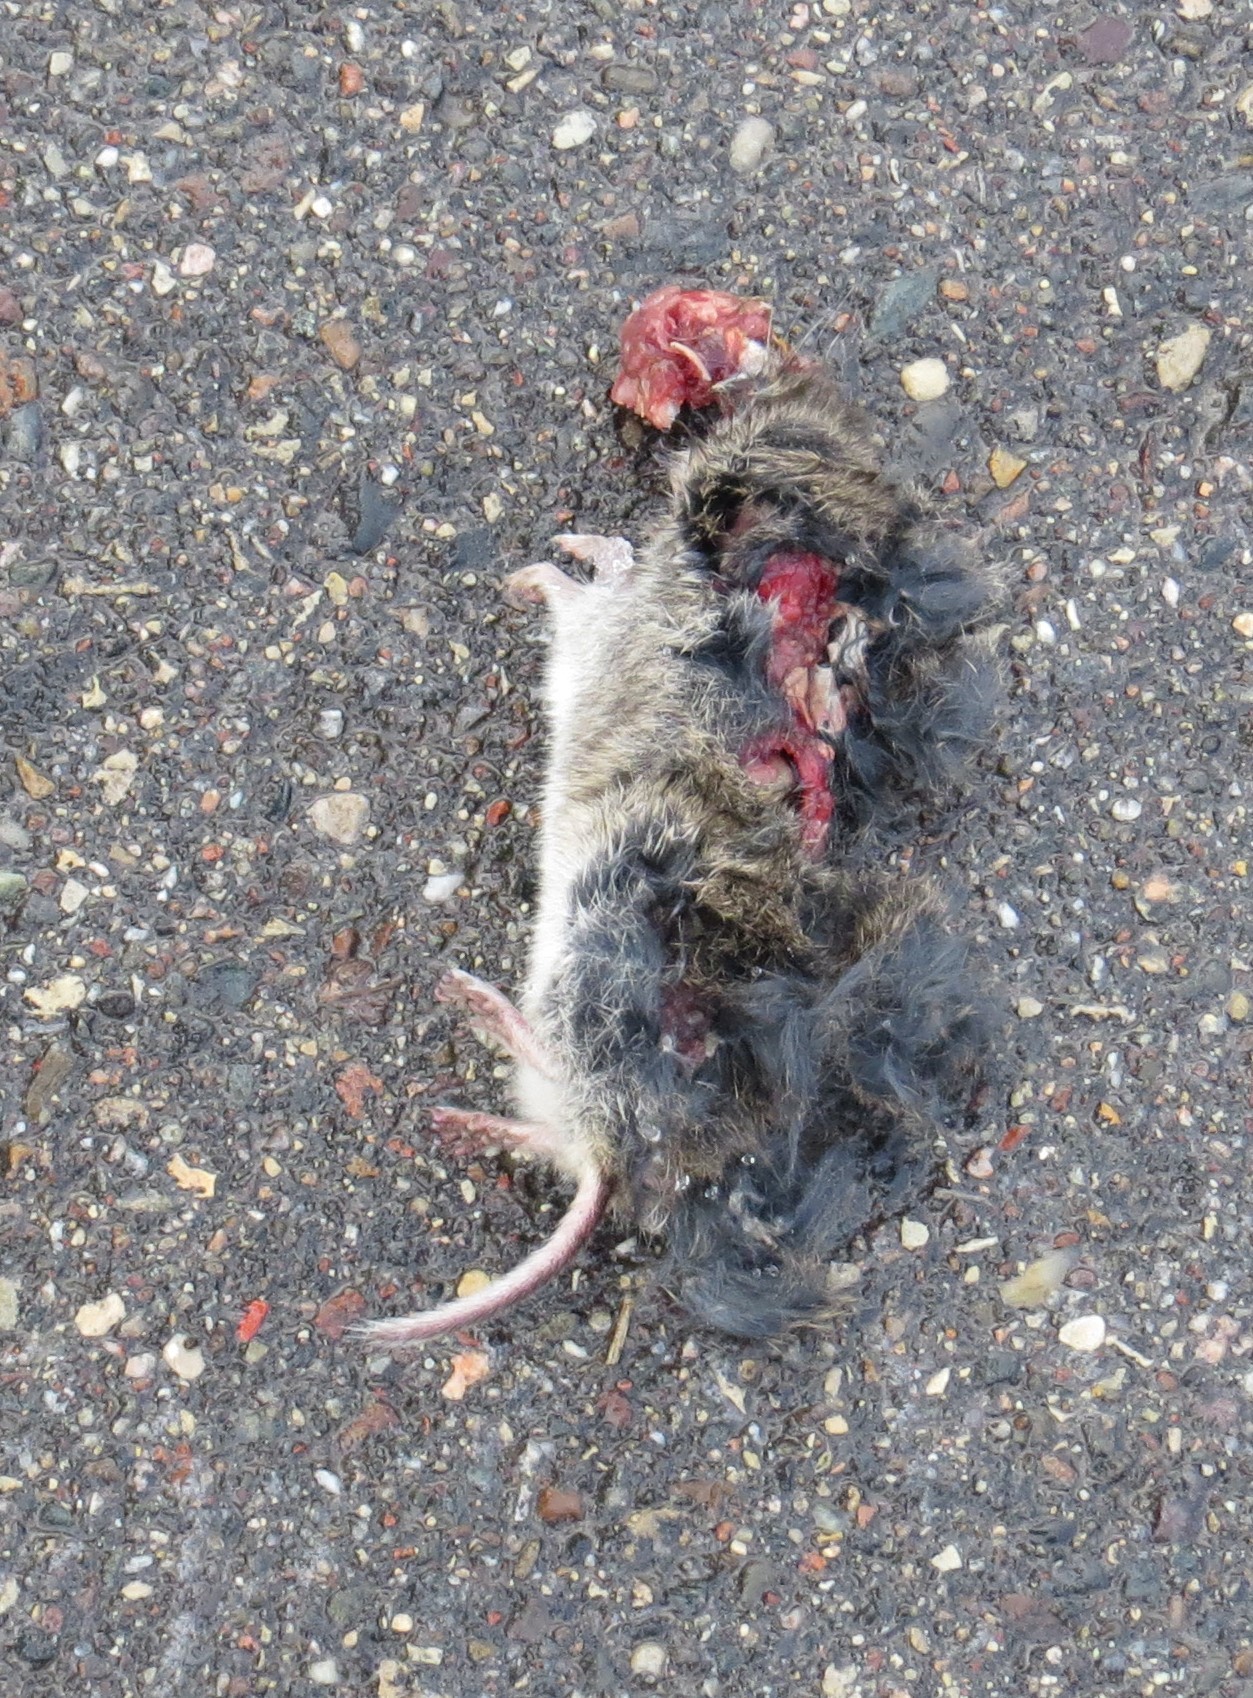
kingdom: Animalia
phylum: Chordata
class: Mammalia
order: Rodentia
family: Cricetidae
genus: Microtus
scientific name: Microtus pennsylvanicus
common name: Meadow vole
